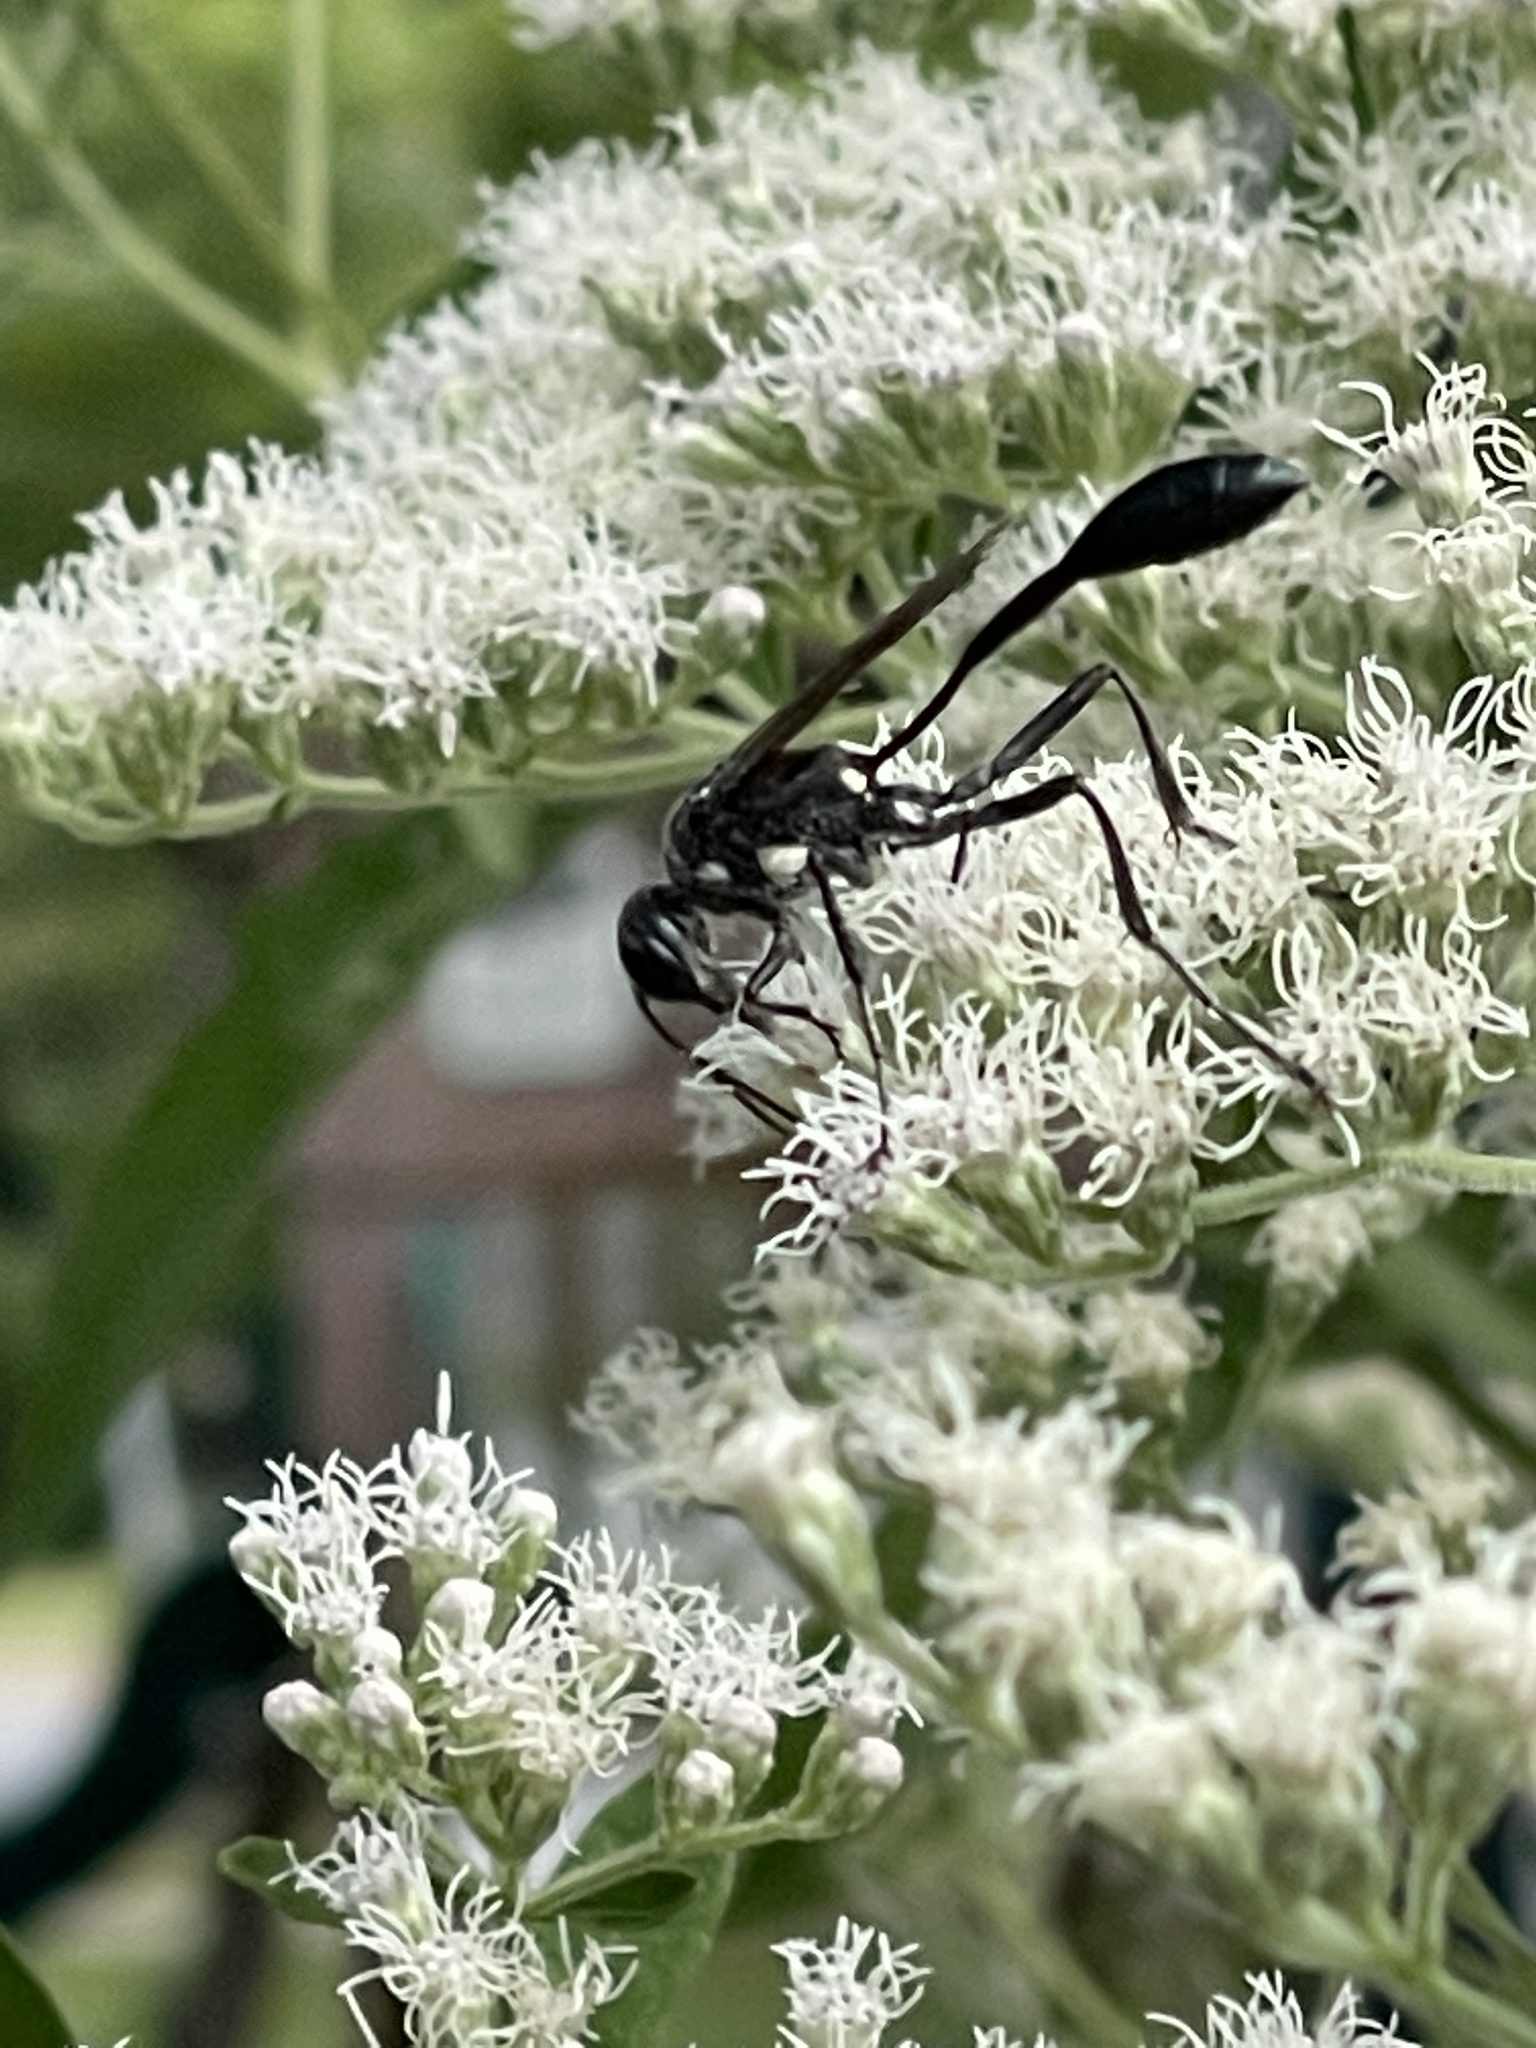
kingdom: Animalia
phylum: Arthropoda
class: Insecta
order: Hymenoptera
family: Sphecidae
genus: Eremnophila
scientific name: Eremnophila aureonotata
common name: Gold-marked thread-waisted wasp
